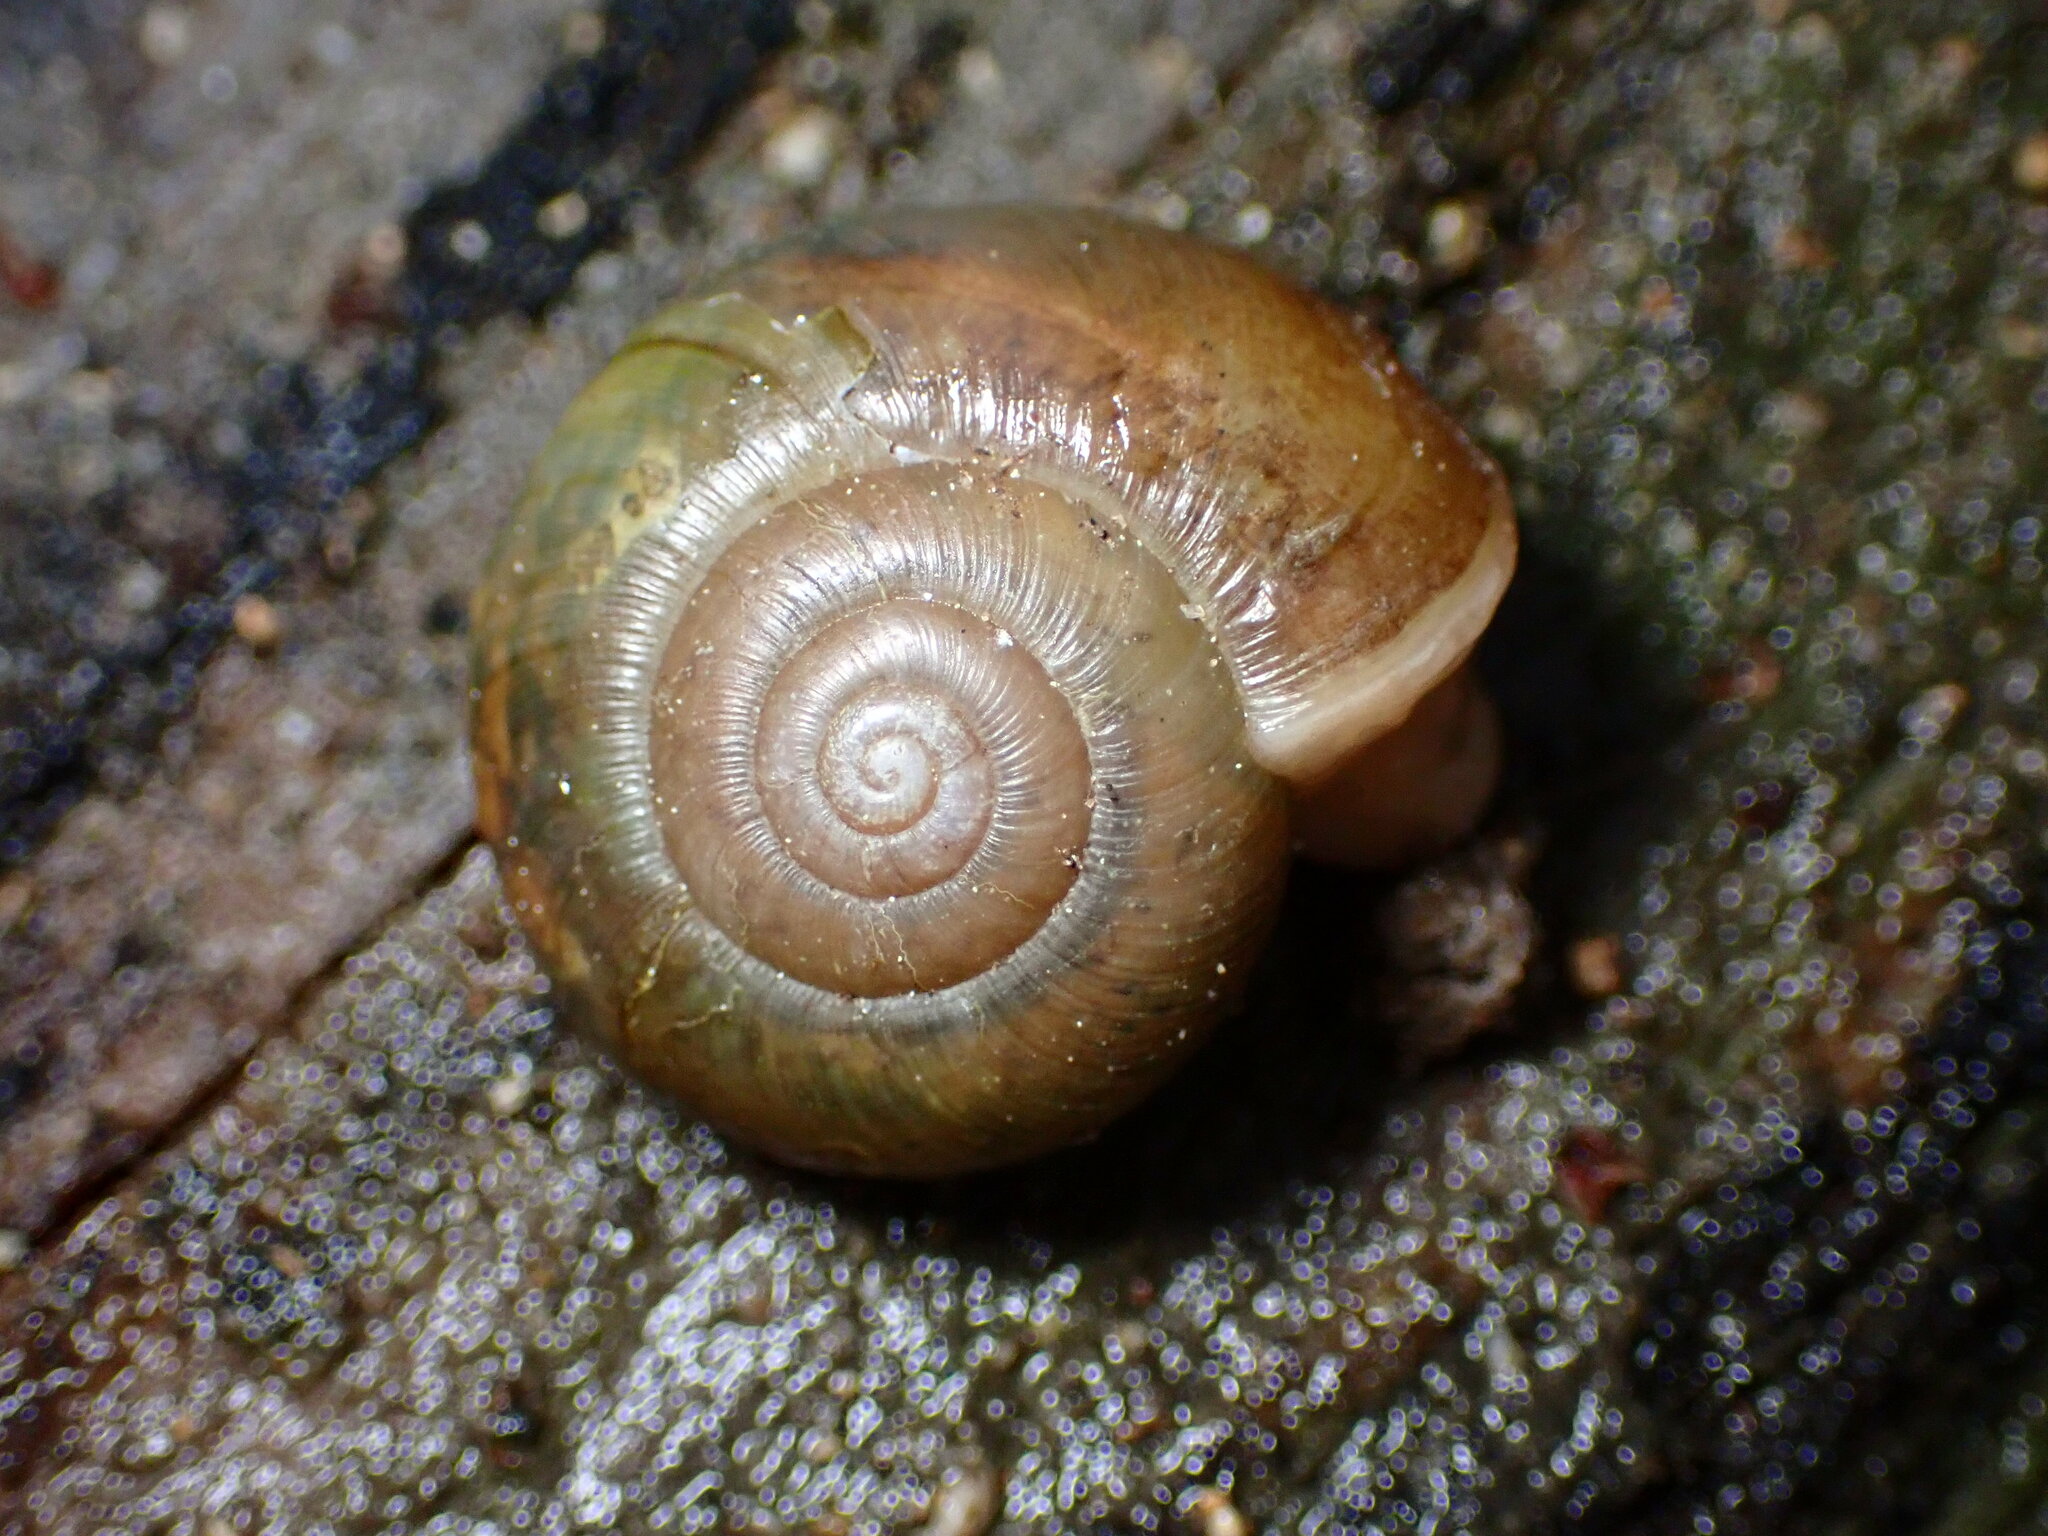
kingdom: Animalia
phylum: Mollusca
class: Gastropoda
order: Stylommatophora
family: Haplotrematidae
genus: Haplotrema
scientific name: Haplotrema minimum
